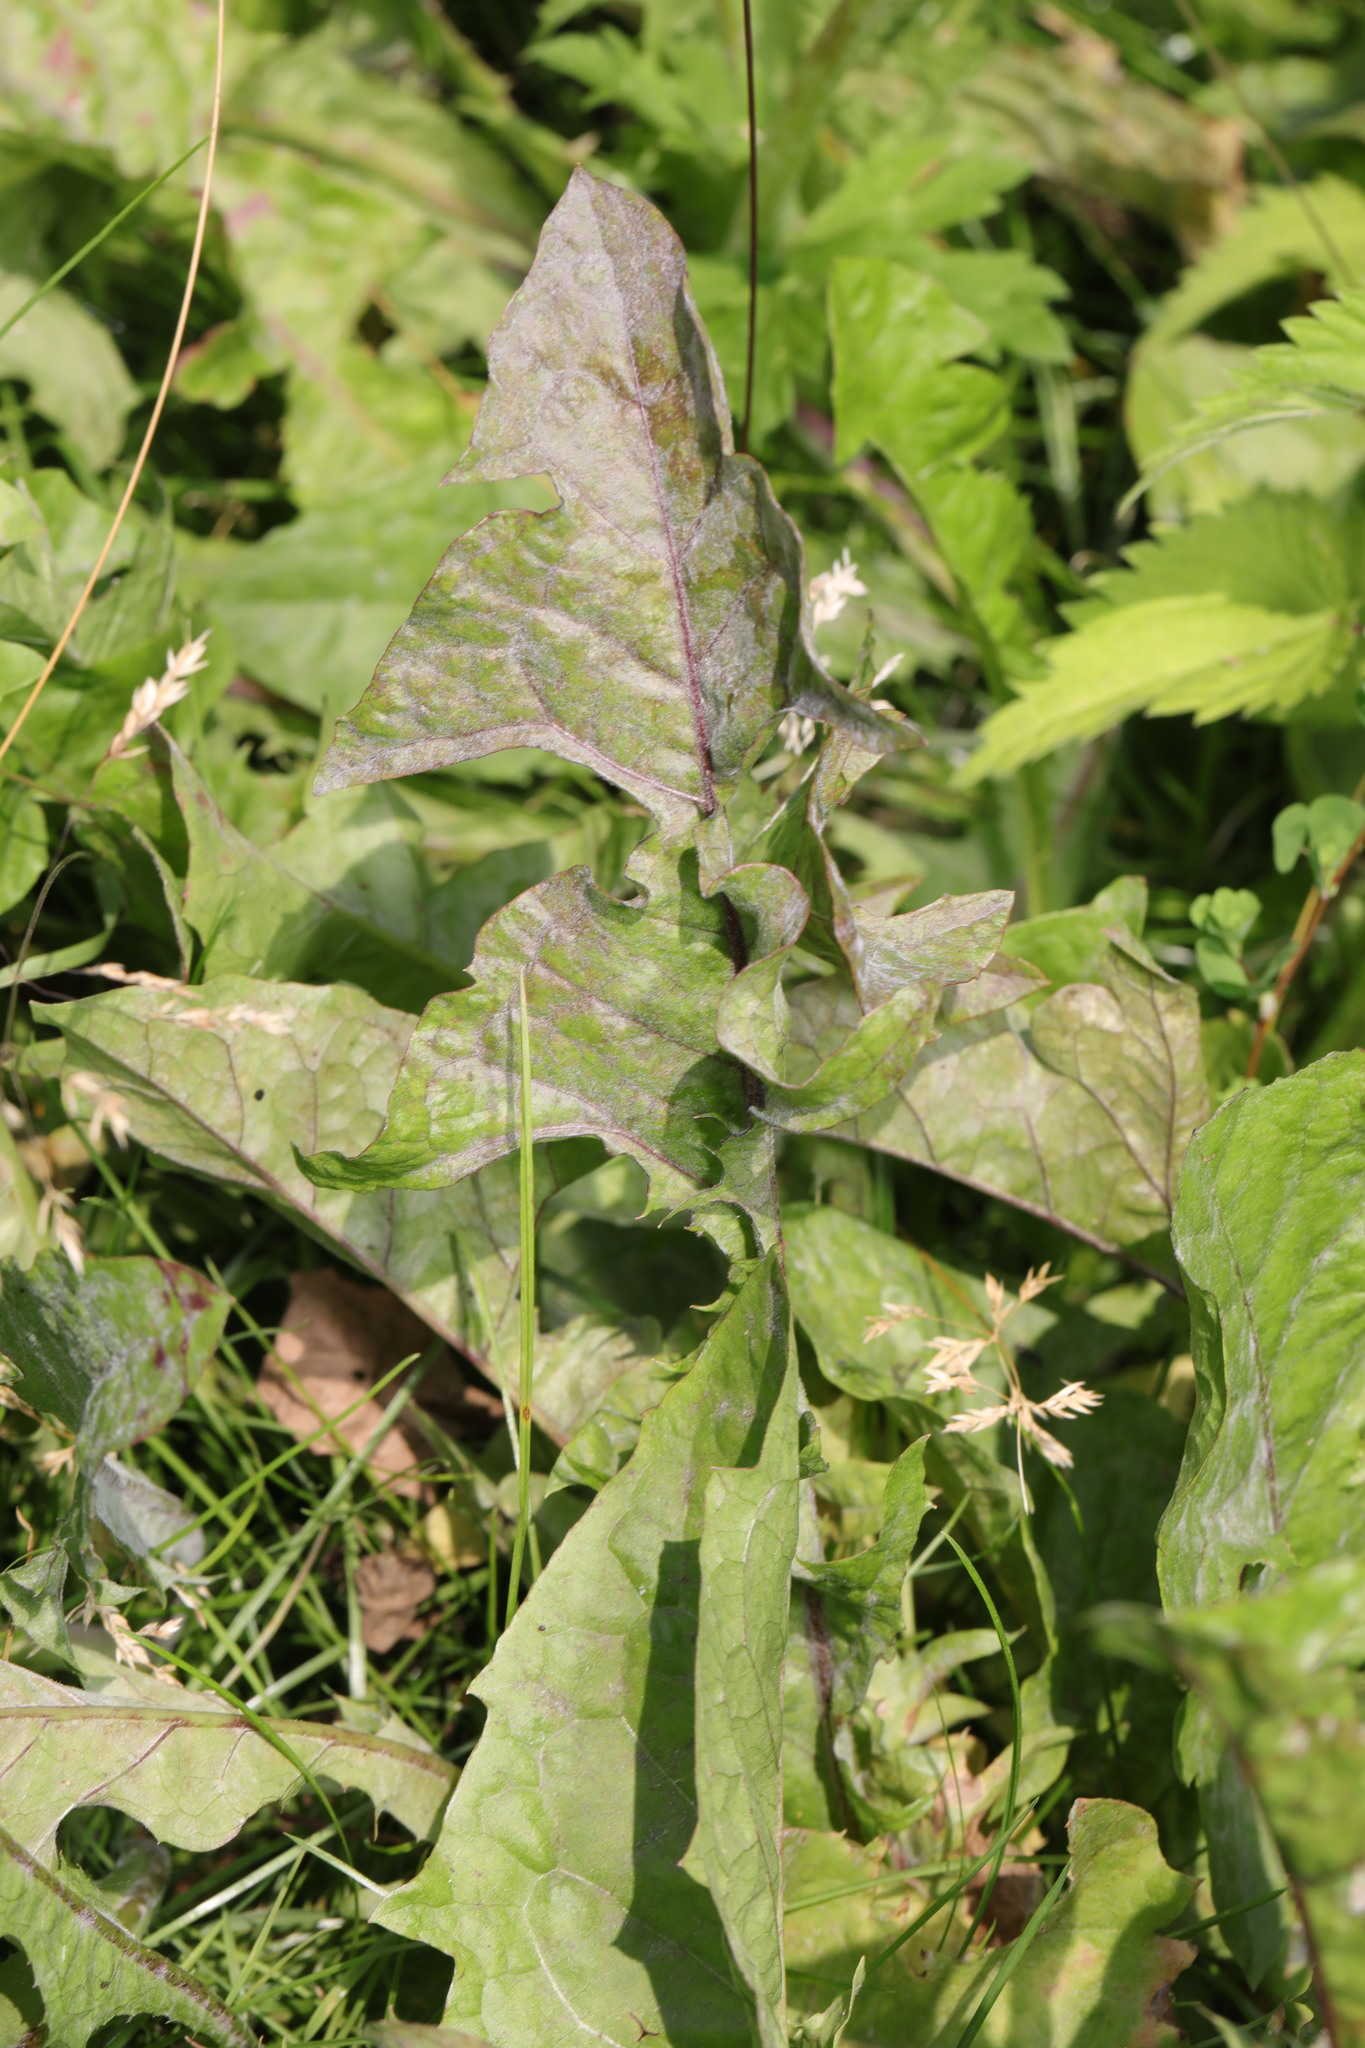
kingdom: Plantae
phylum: Tracheophyta
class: Magnoliopsida
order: Asterales
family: Asteraceae
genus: Taraxacum
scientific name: Taraxacum officinale
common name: Common dandelion
